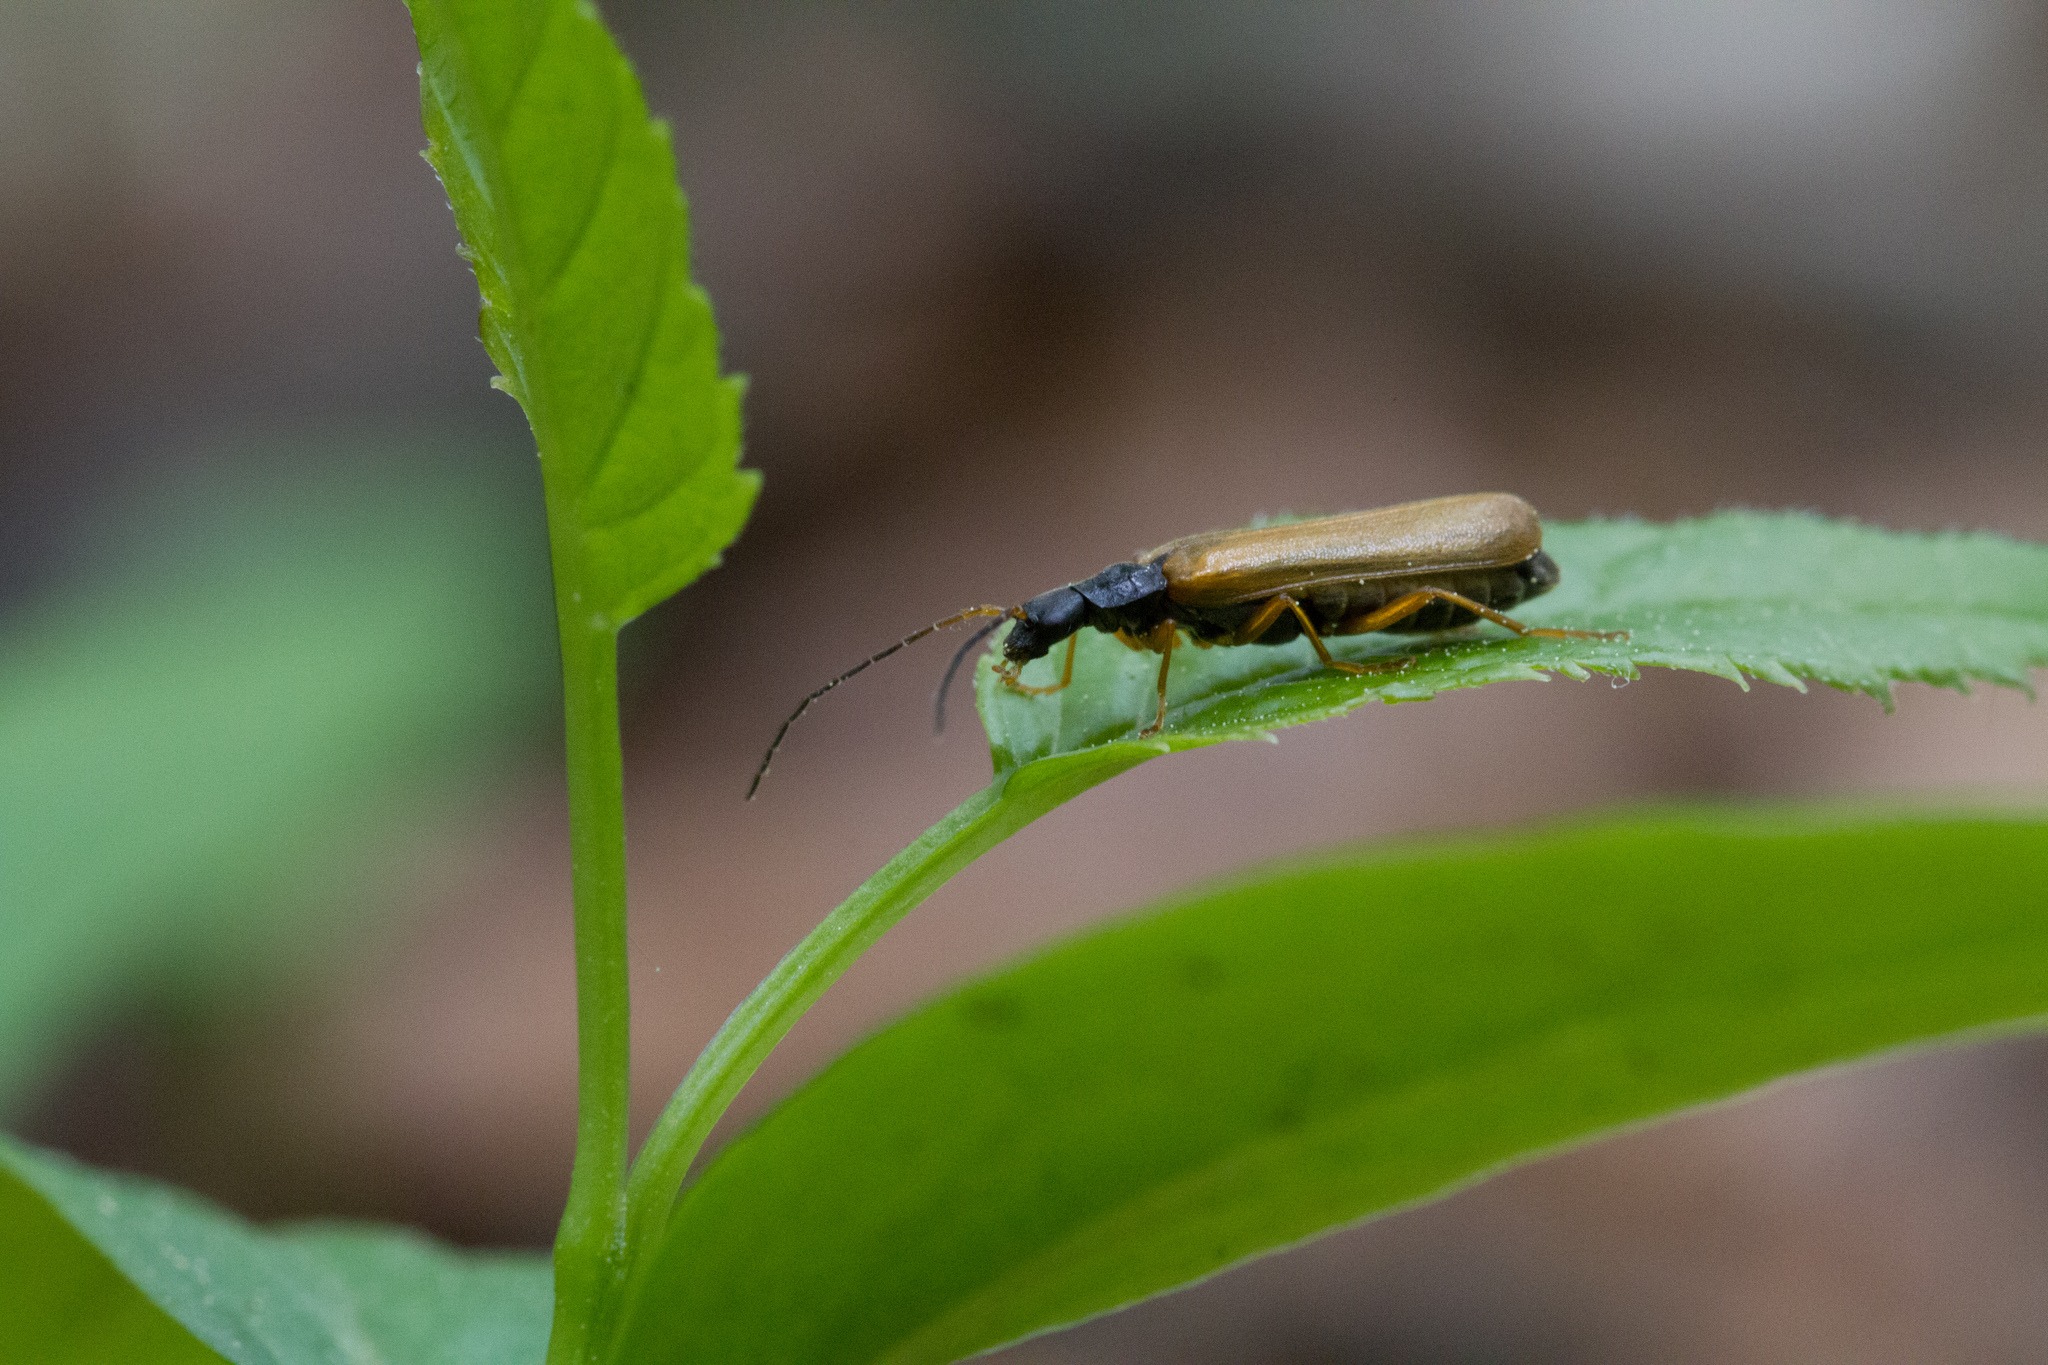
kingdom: Animalia
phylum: Arthropoda
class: Insecta
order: Coleoptera
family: Cantharidae
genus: Rhagonycha
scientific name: Rhagonycha lignosa
